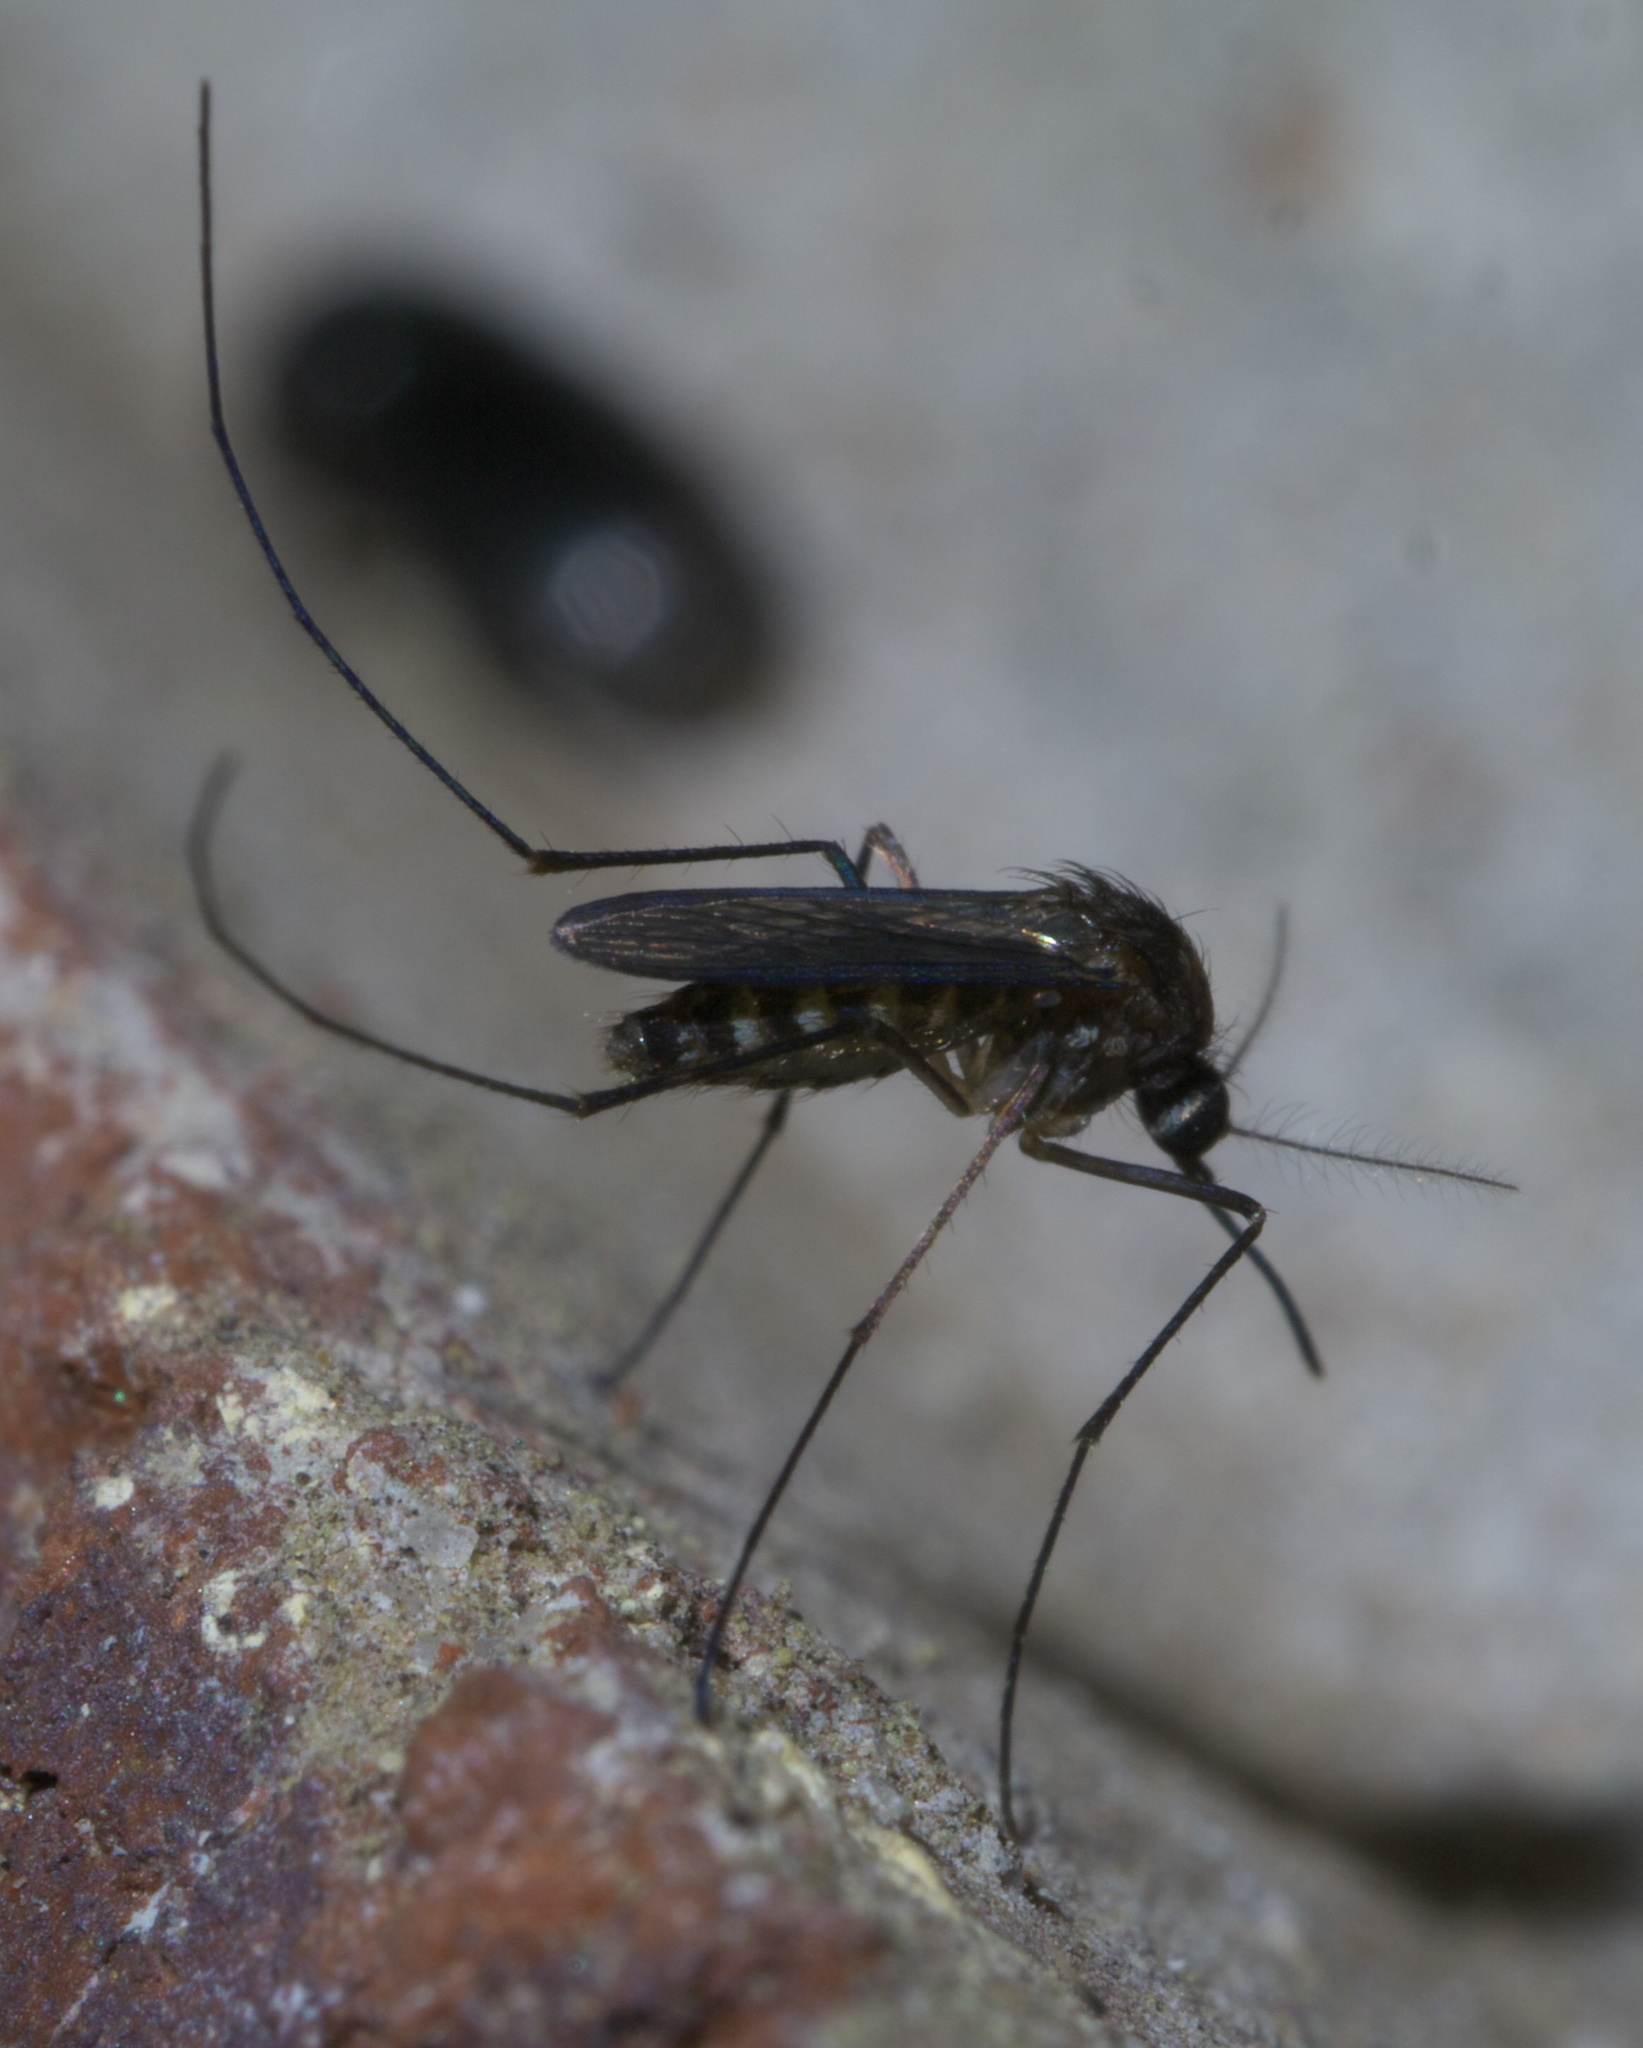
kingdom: Animalia
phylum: Arthropoda
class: Insecta
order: Diptera
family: Culicidae
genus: Culex
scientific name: Culex erraticus
